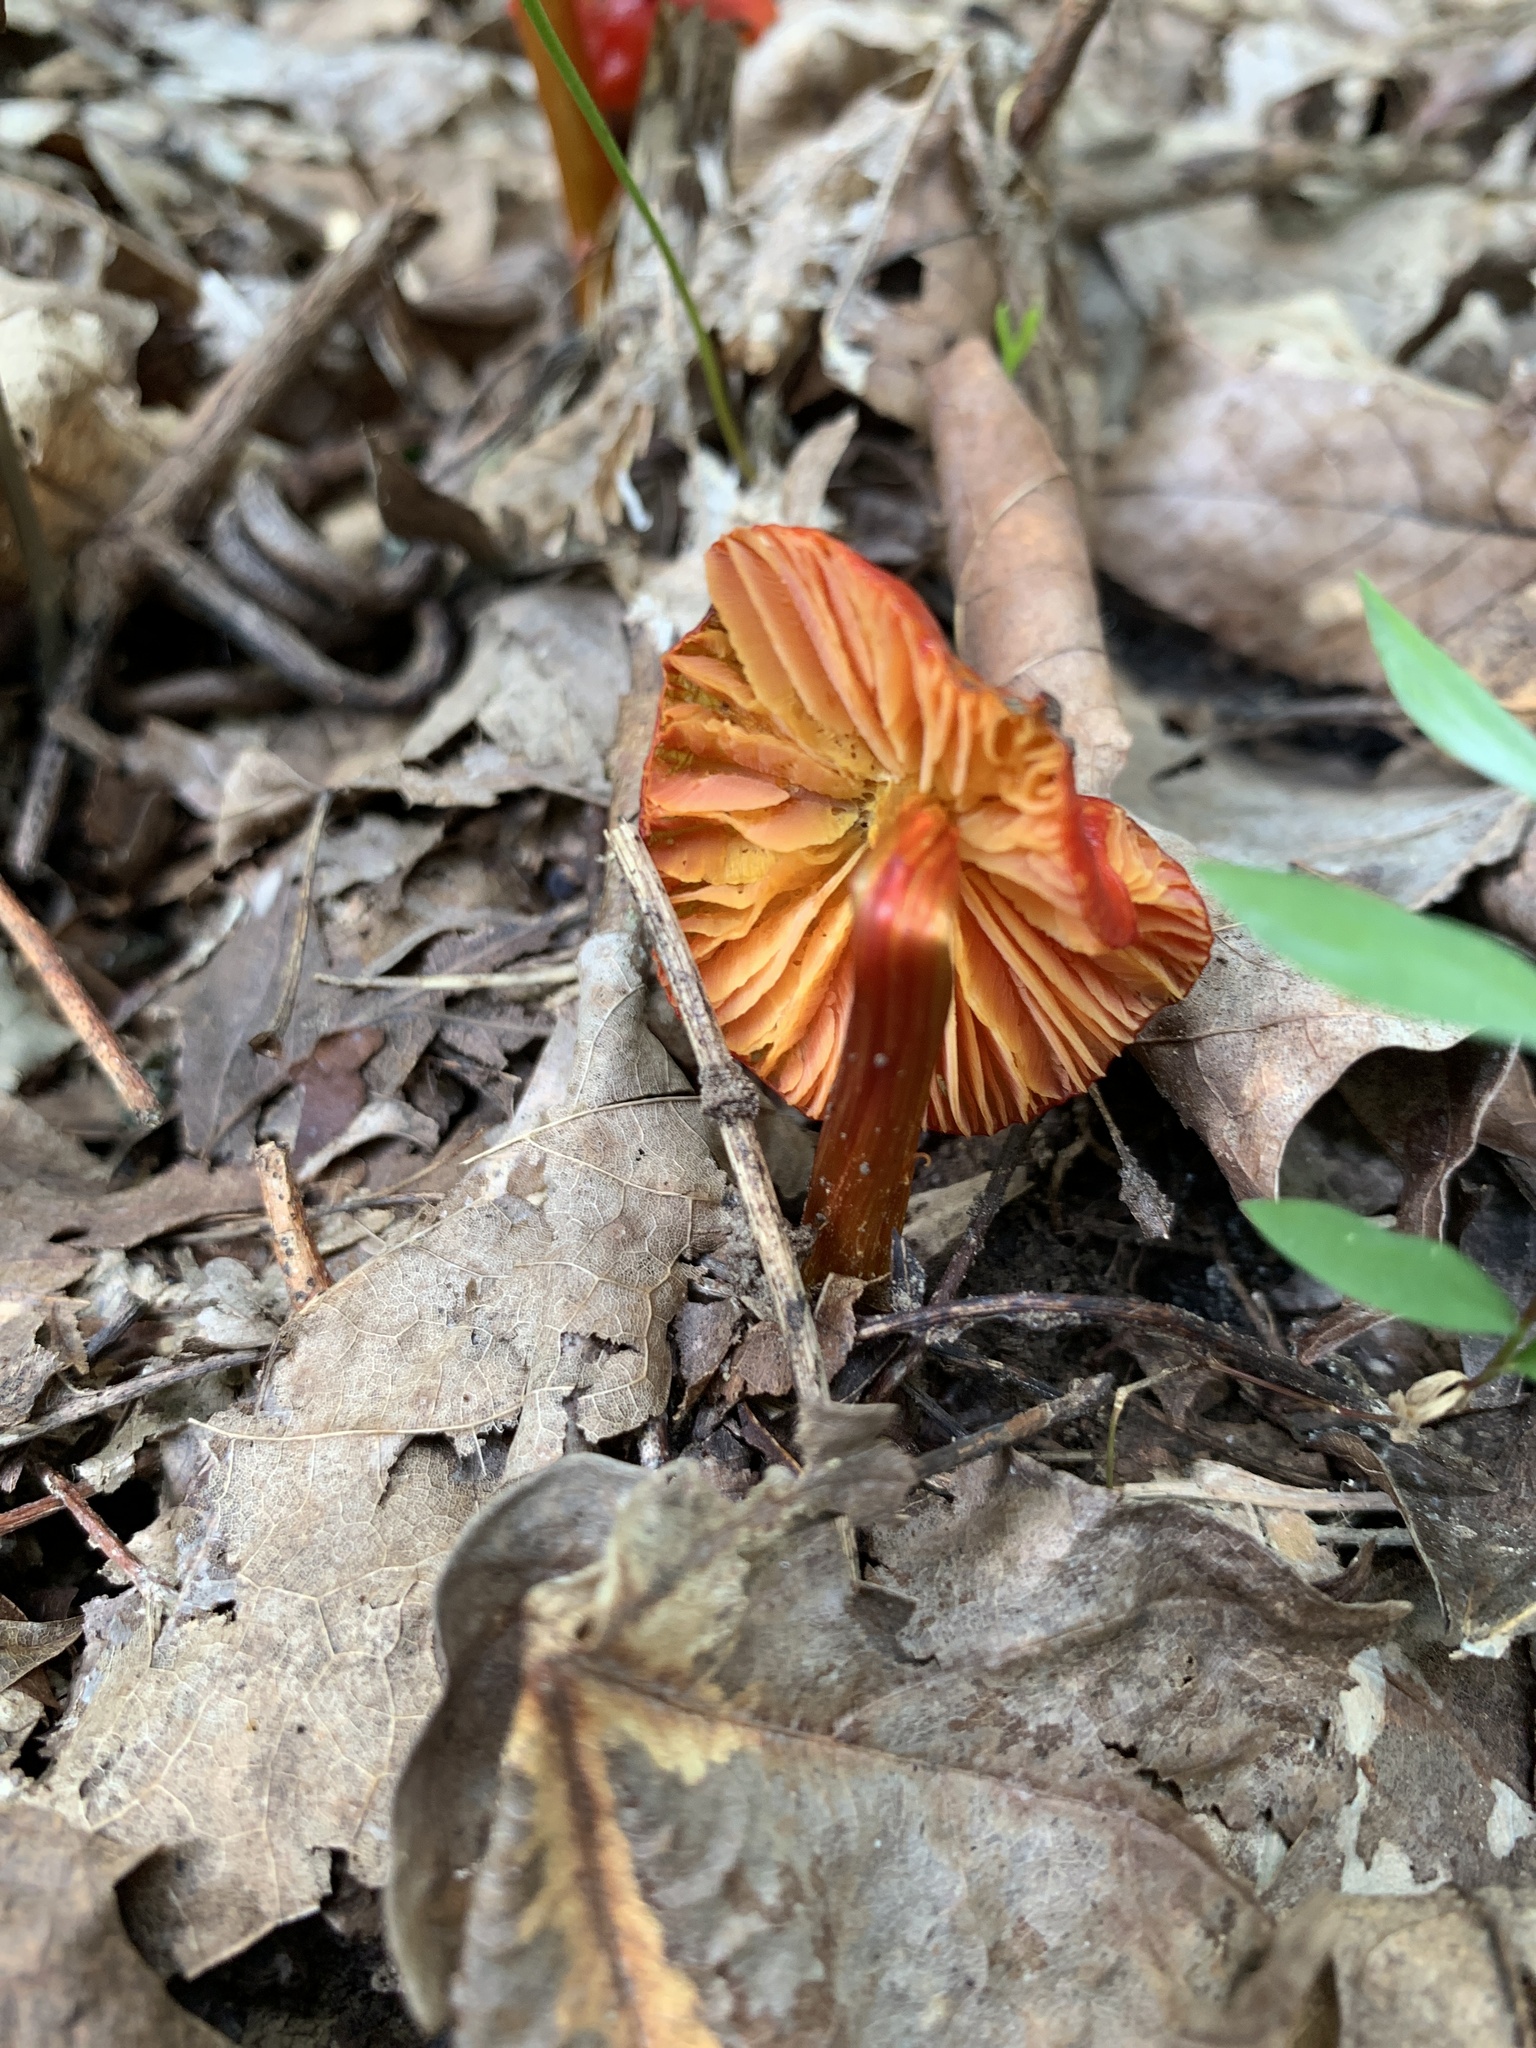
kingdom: Fungi
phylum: Basidiomycota
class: Agaricomycetes
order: Agaricales
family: Hygrophoraceae
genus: Hygrocybe
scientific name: Hygrocybe cuspidata
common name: Candy apple waxy cap
